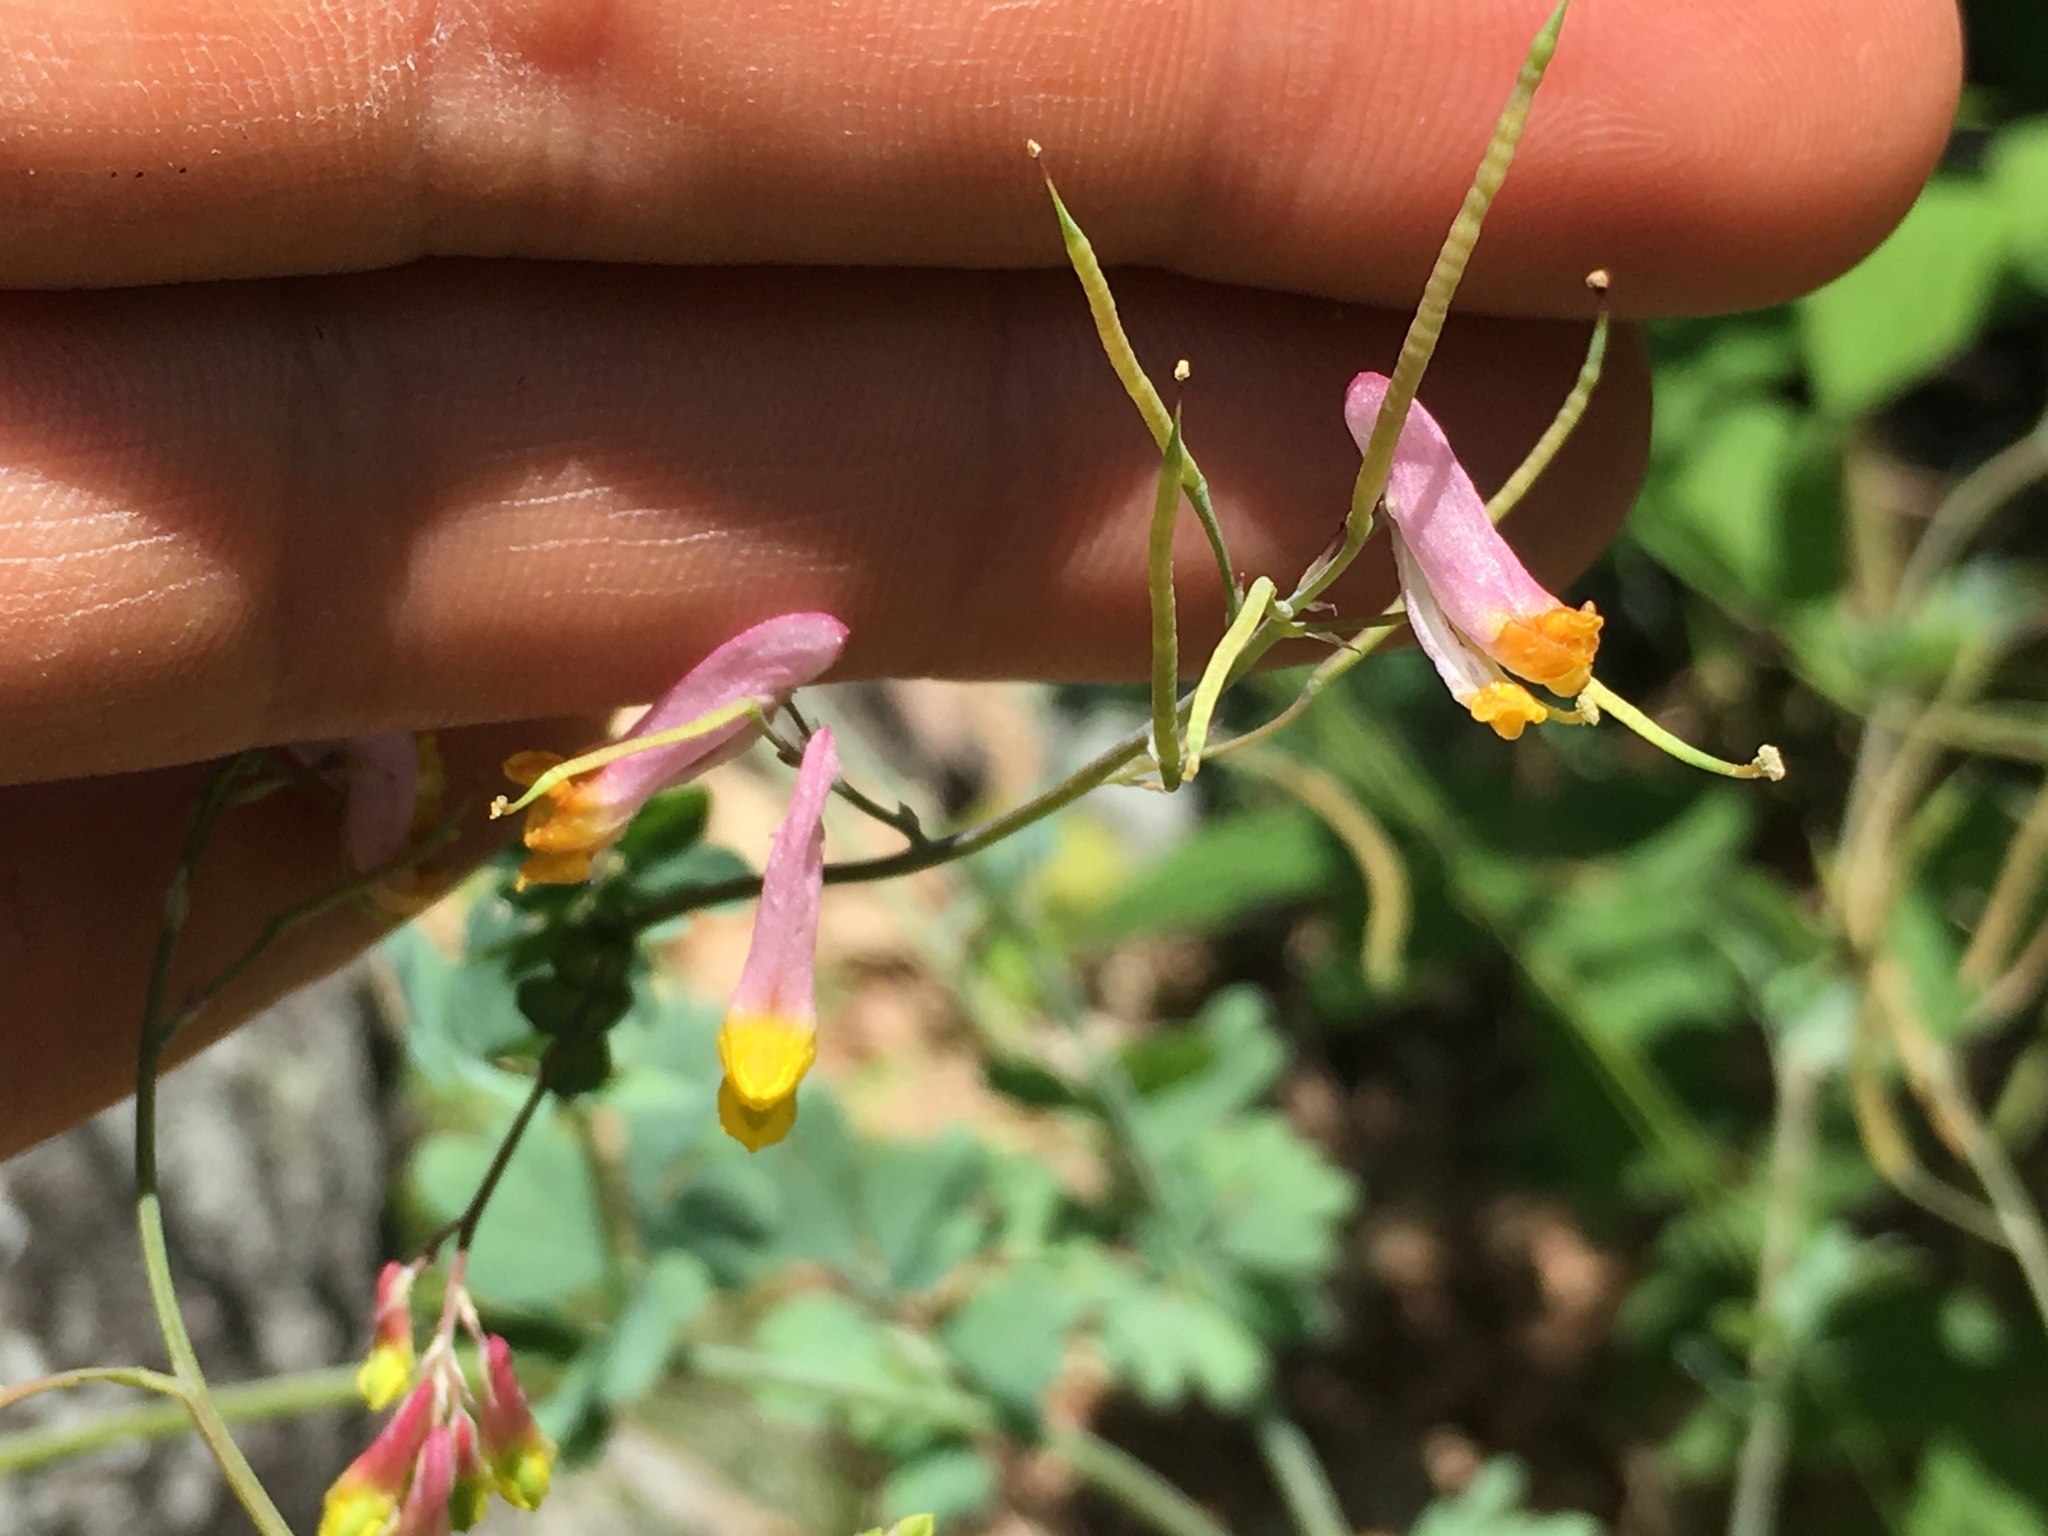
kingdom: Plantae
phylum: Tracheophyta
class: Magnoliopsida
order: Ranunculales
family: Papaveraceae
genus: Capnoides
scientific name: Capnoides sempervirens
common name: Rock harlequin
